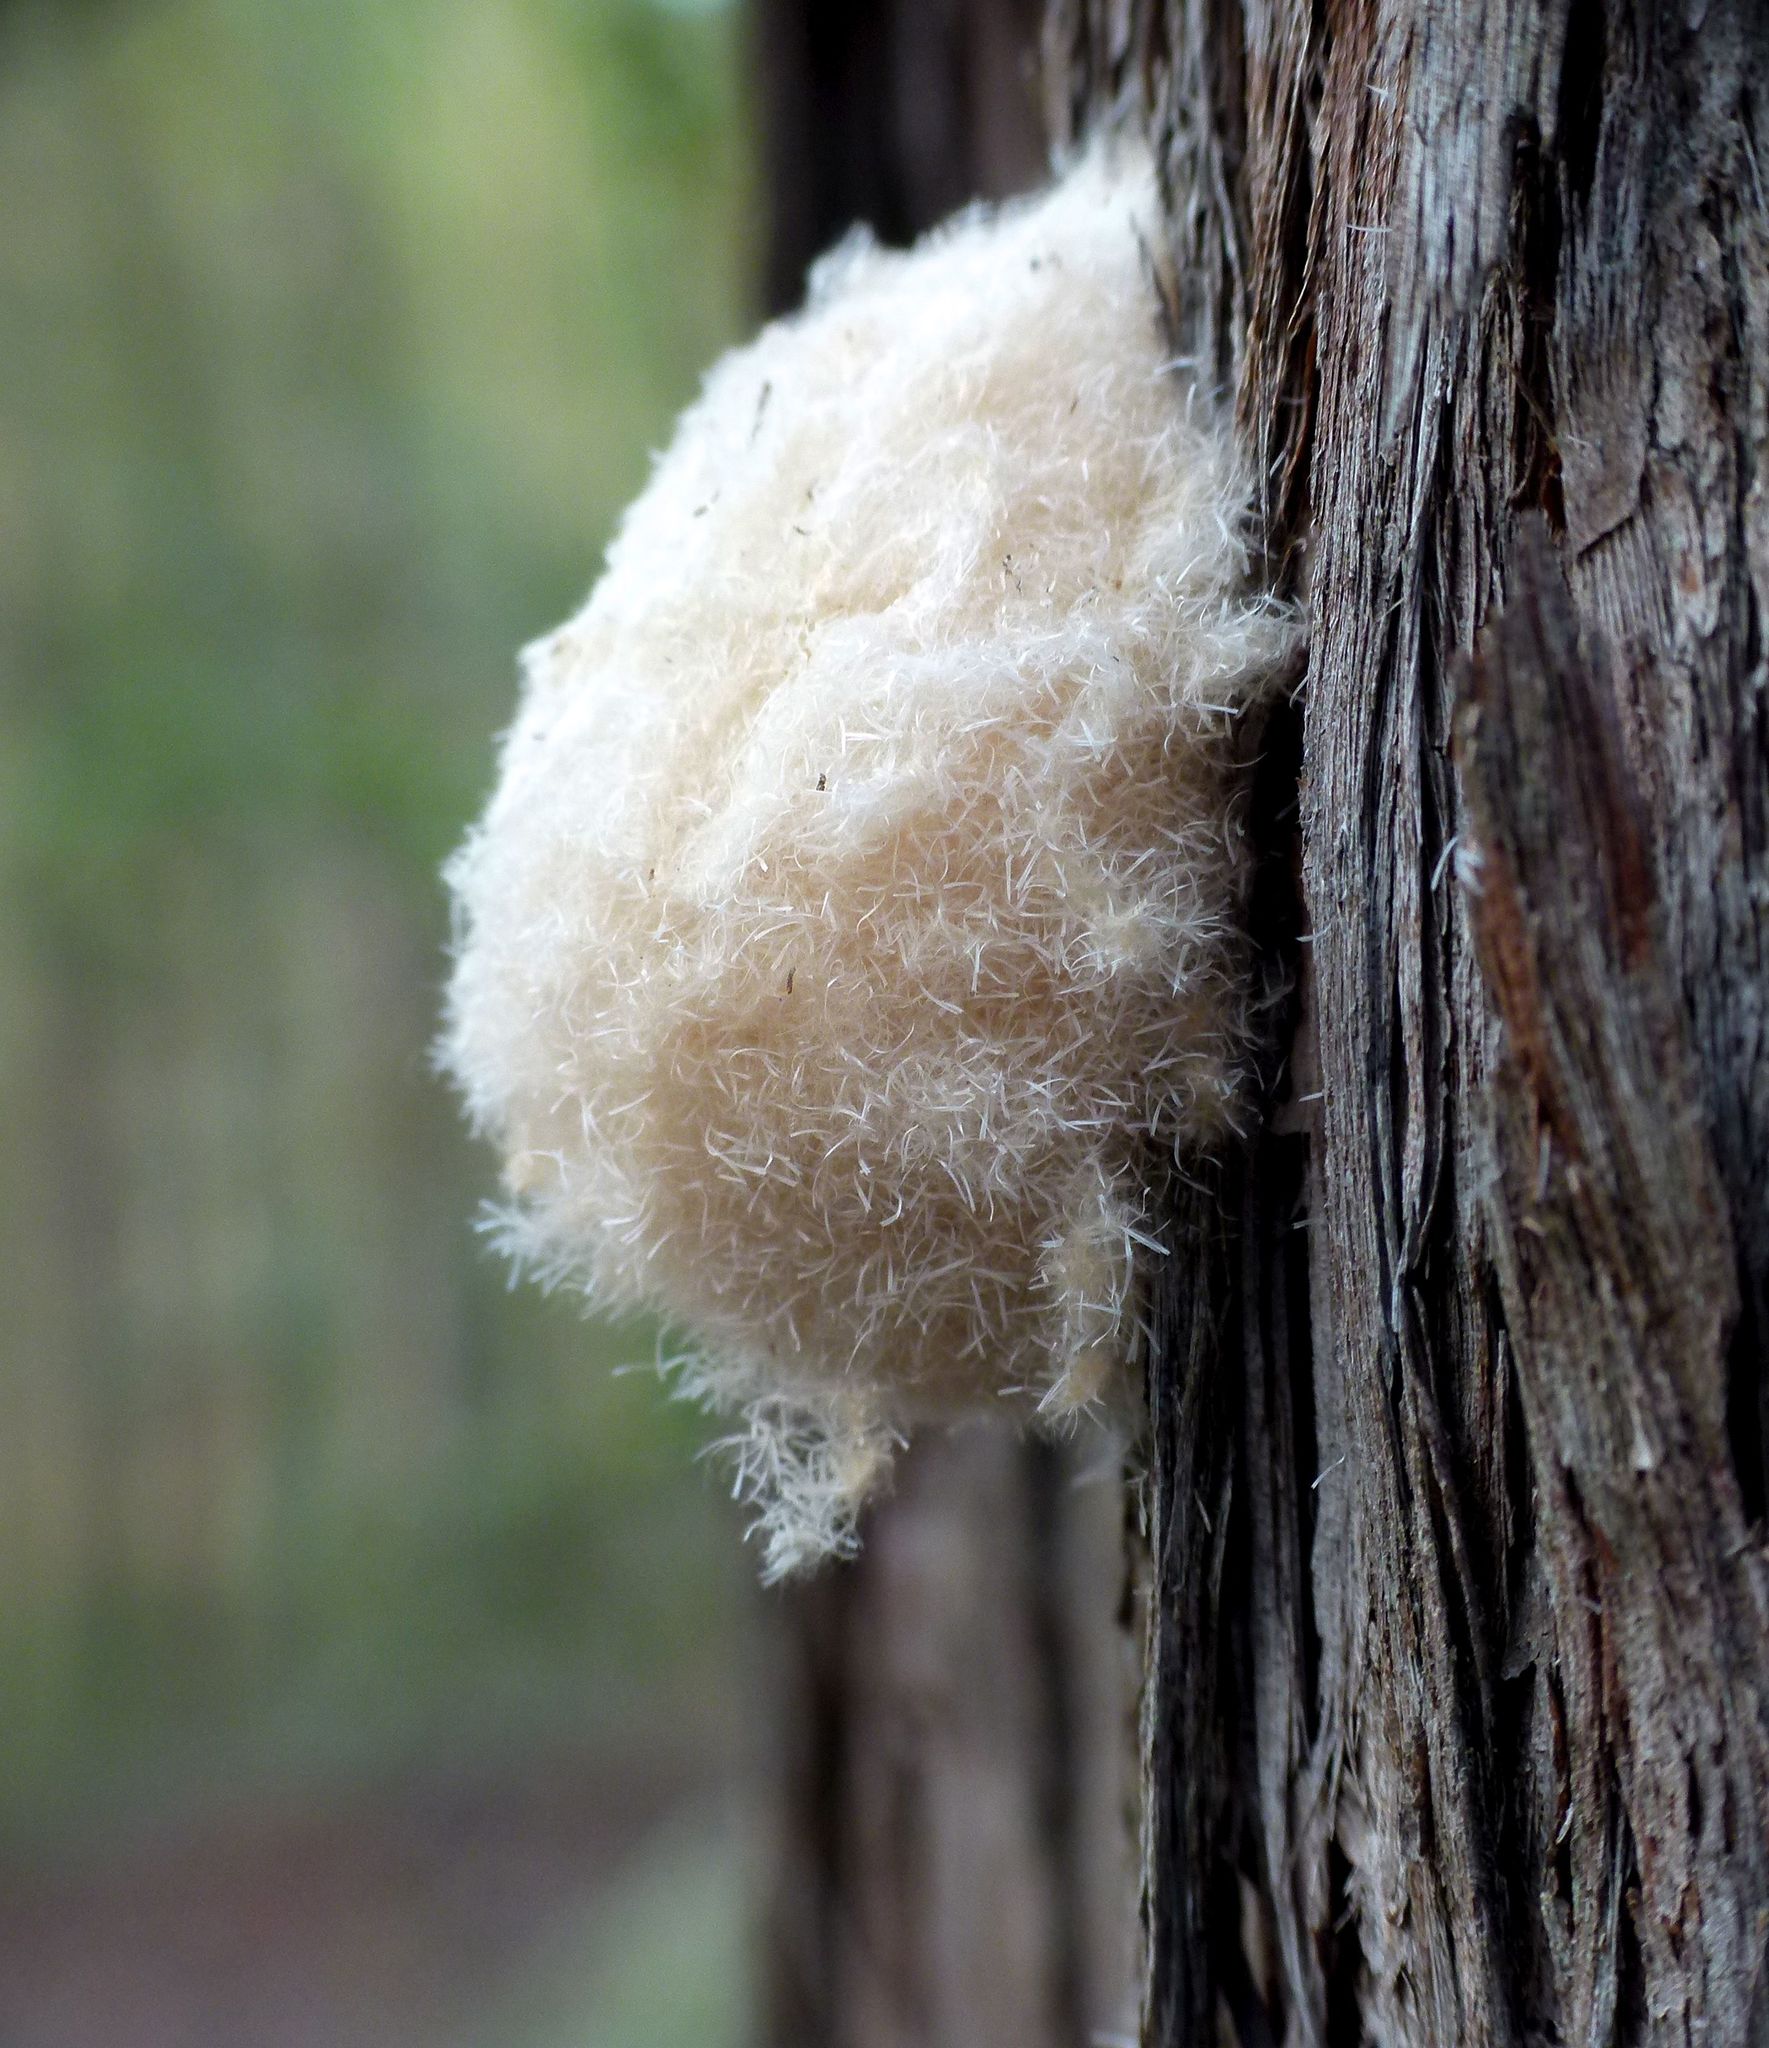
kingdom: Animalia
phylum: Arthropoda
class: Insecta
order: Lepidoptera
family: Notodontidae
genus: Ochrogaster
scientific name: Ochrogaster lunifer
